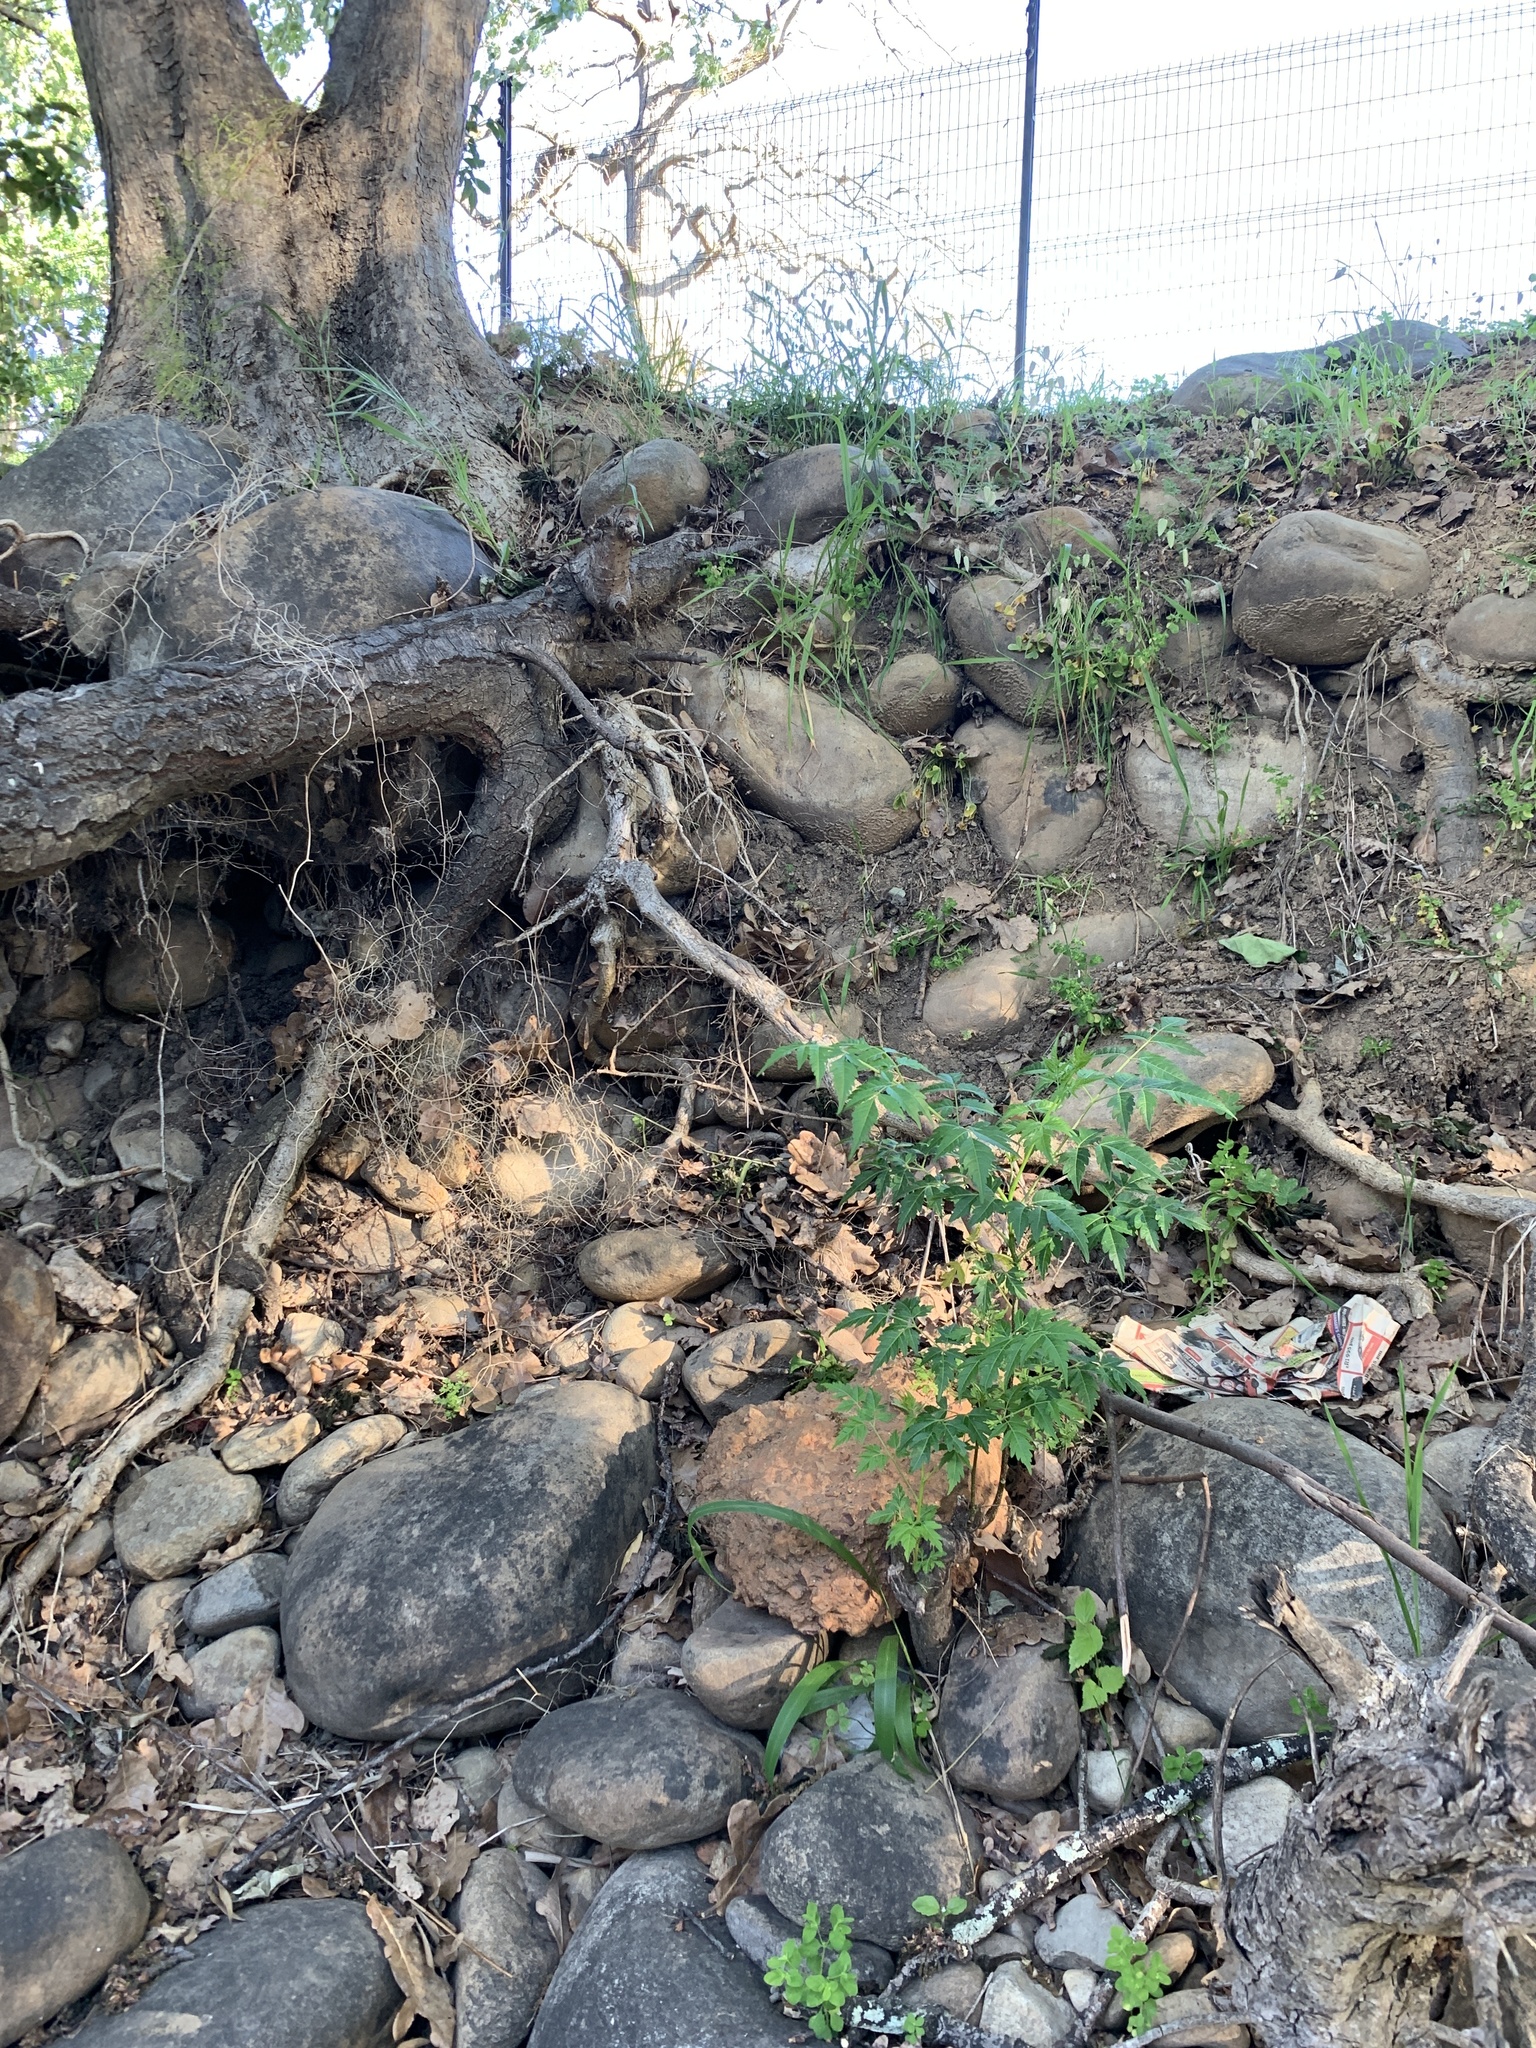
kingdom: Plantae
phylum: Tracheophyta
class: Magnoliopsida
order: Sapindales
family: Meliaceae
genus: Melia
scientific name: Melia azedarach
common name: Chinaberrytree
